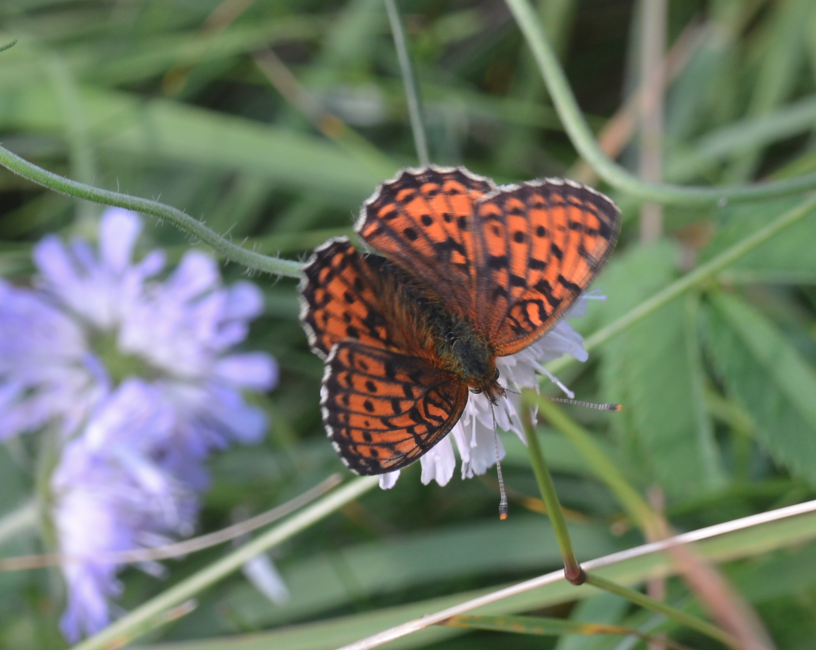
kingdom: Animalia
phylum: Arthropoda
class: Insecta
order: Lepidoptera
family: Nymphalidae
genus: Brenthis
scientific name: Brenthis ino
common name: Lesser marbled fritillary
